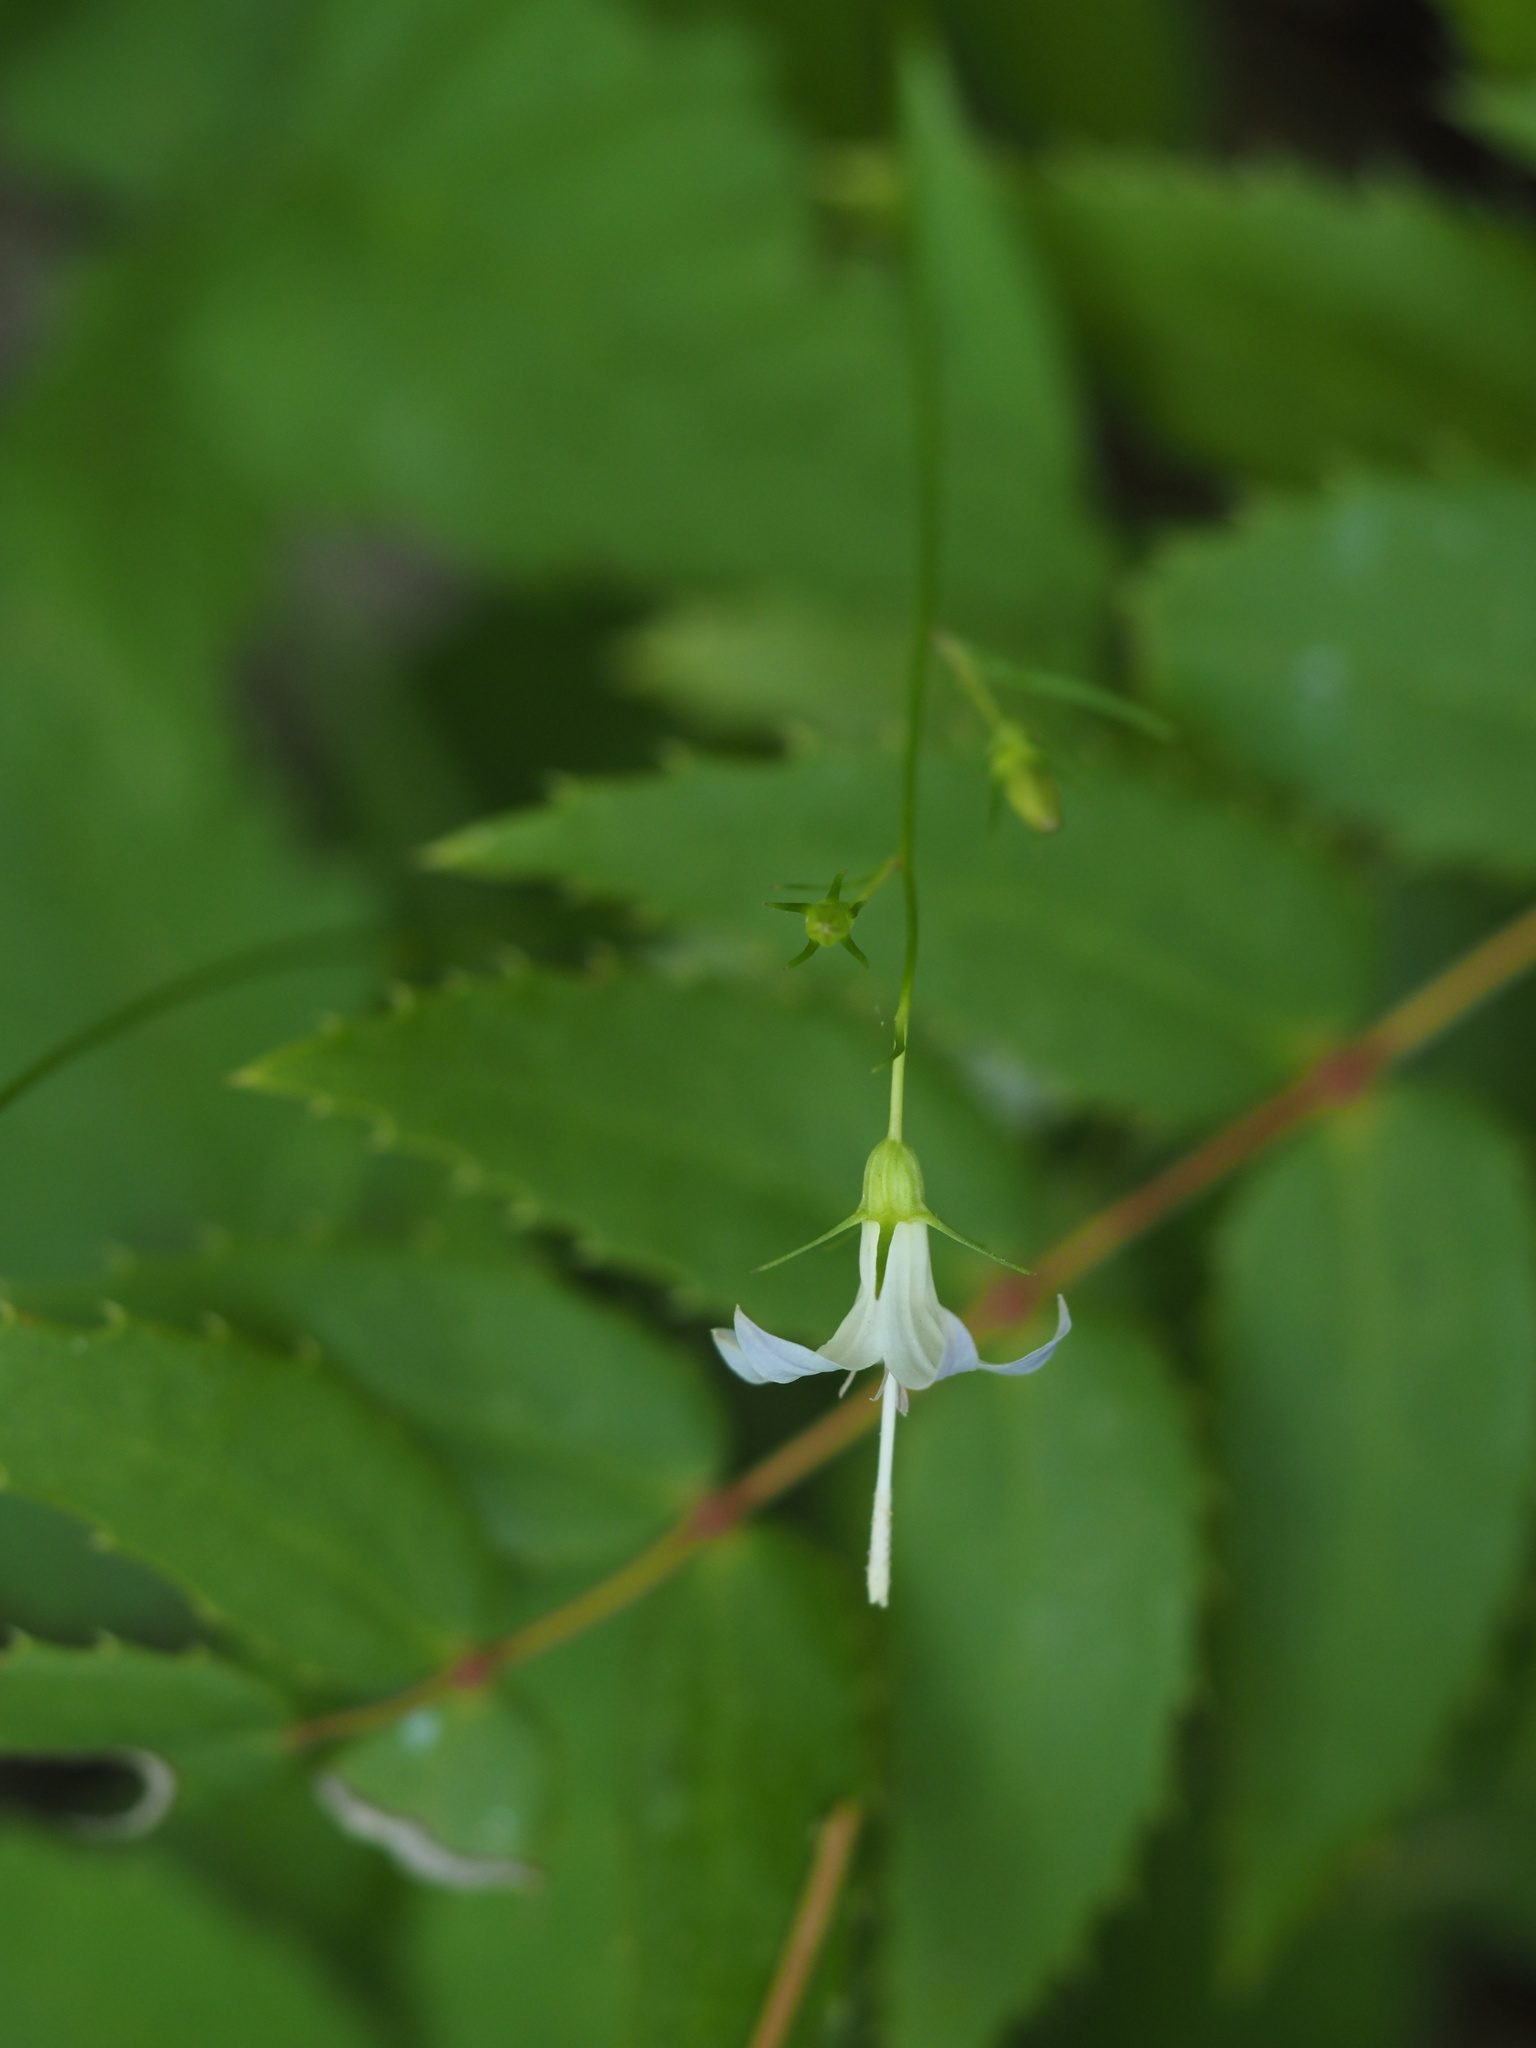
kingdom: Plantae
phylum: Tracheophyta
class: Magnoliopsida
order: Asterales
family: Campanulaceae
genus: Campanula
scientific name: Campanula scouleri
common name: Scouler's harebell
